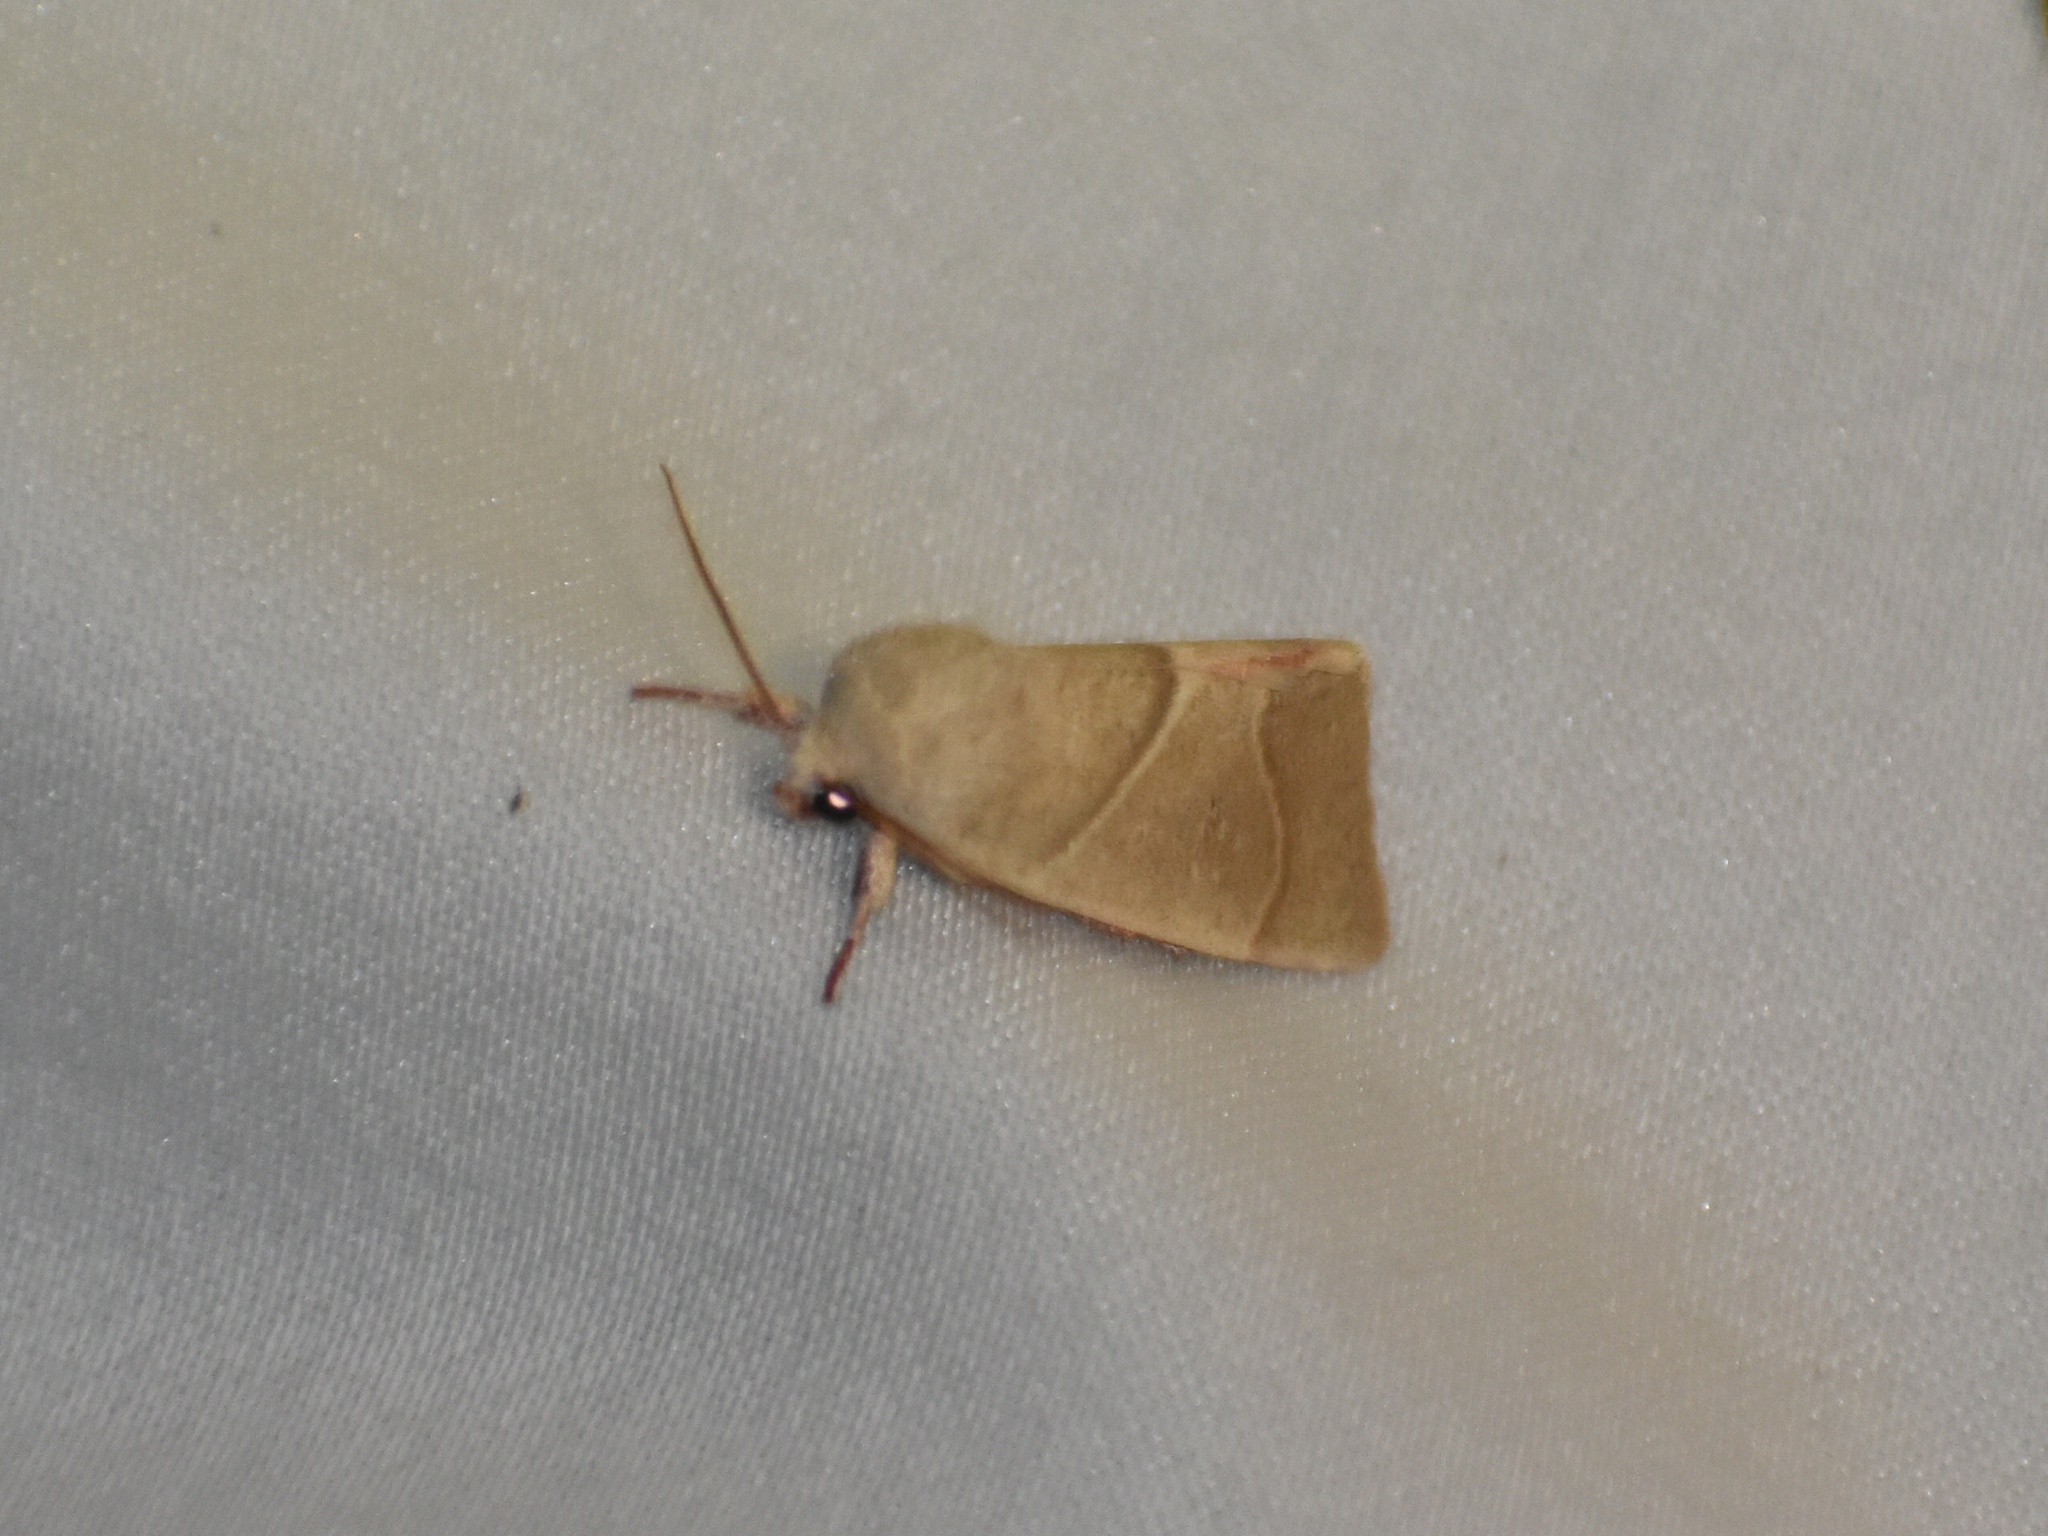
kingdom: Animalia
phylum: Arthropoda
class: Insecta
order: Lepidoptera
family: Noctuidae
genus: Cosmia
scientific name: Cosmia calami
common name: American dun-bar moth
